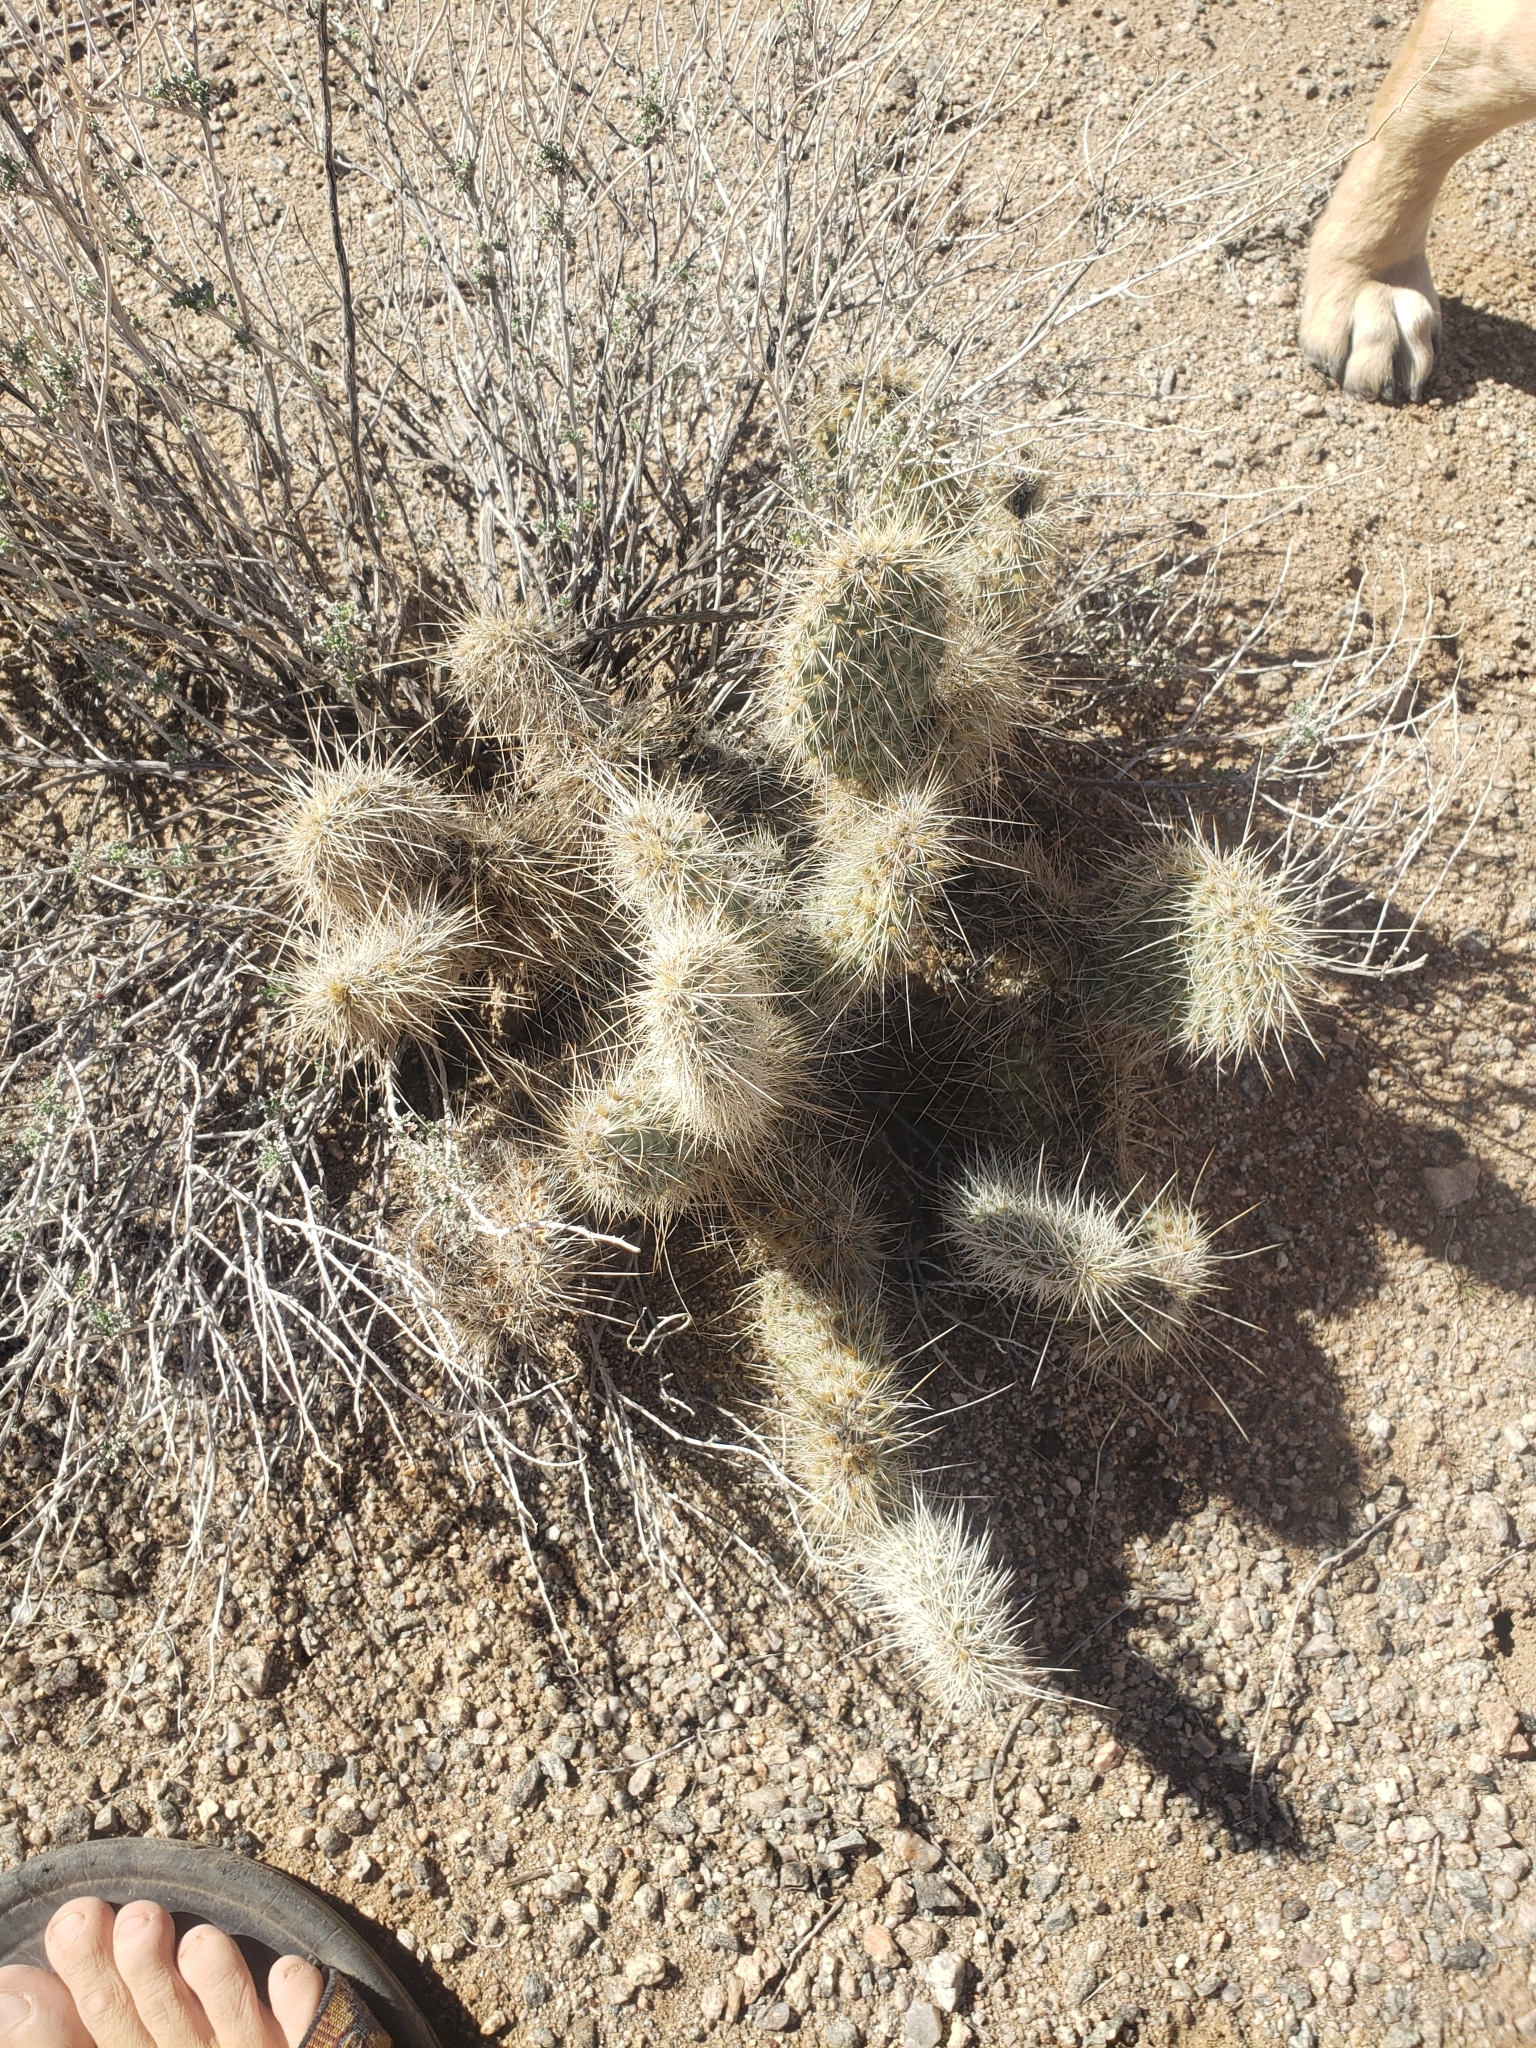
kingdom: Plantae
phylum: Tracheophyta
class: Magnoliopsida
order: Caryophyllales
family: Cactaceae
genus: Opuntia
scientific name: Opuntia polyacantha
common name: Plains prickly-pear
